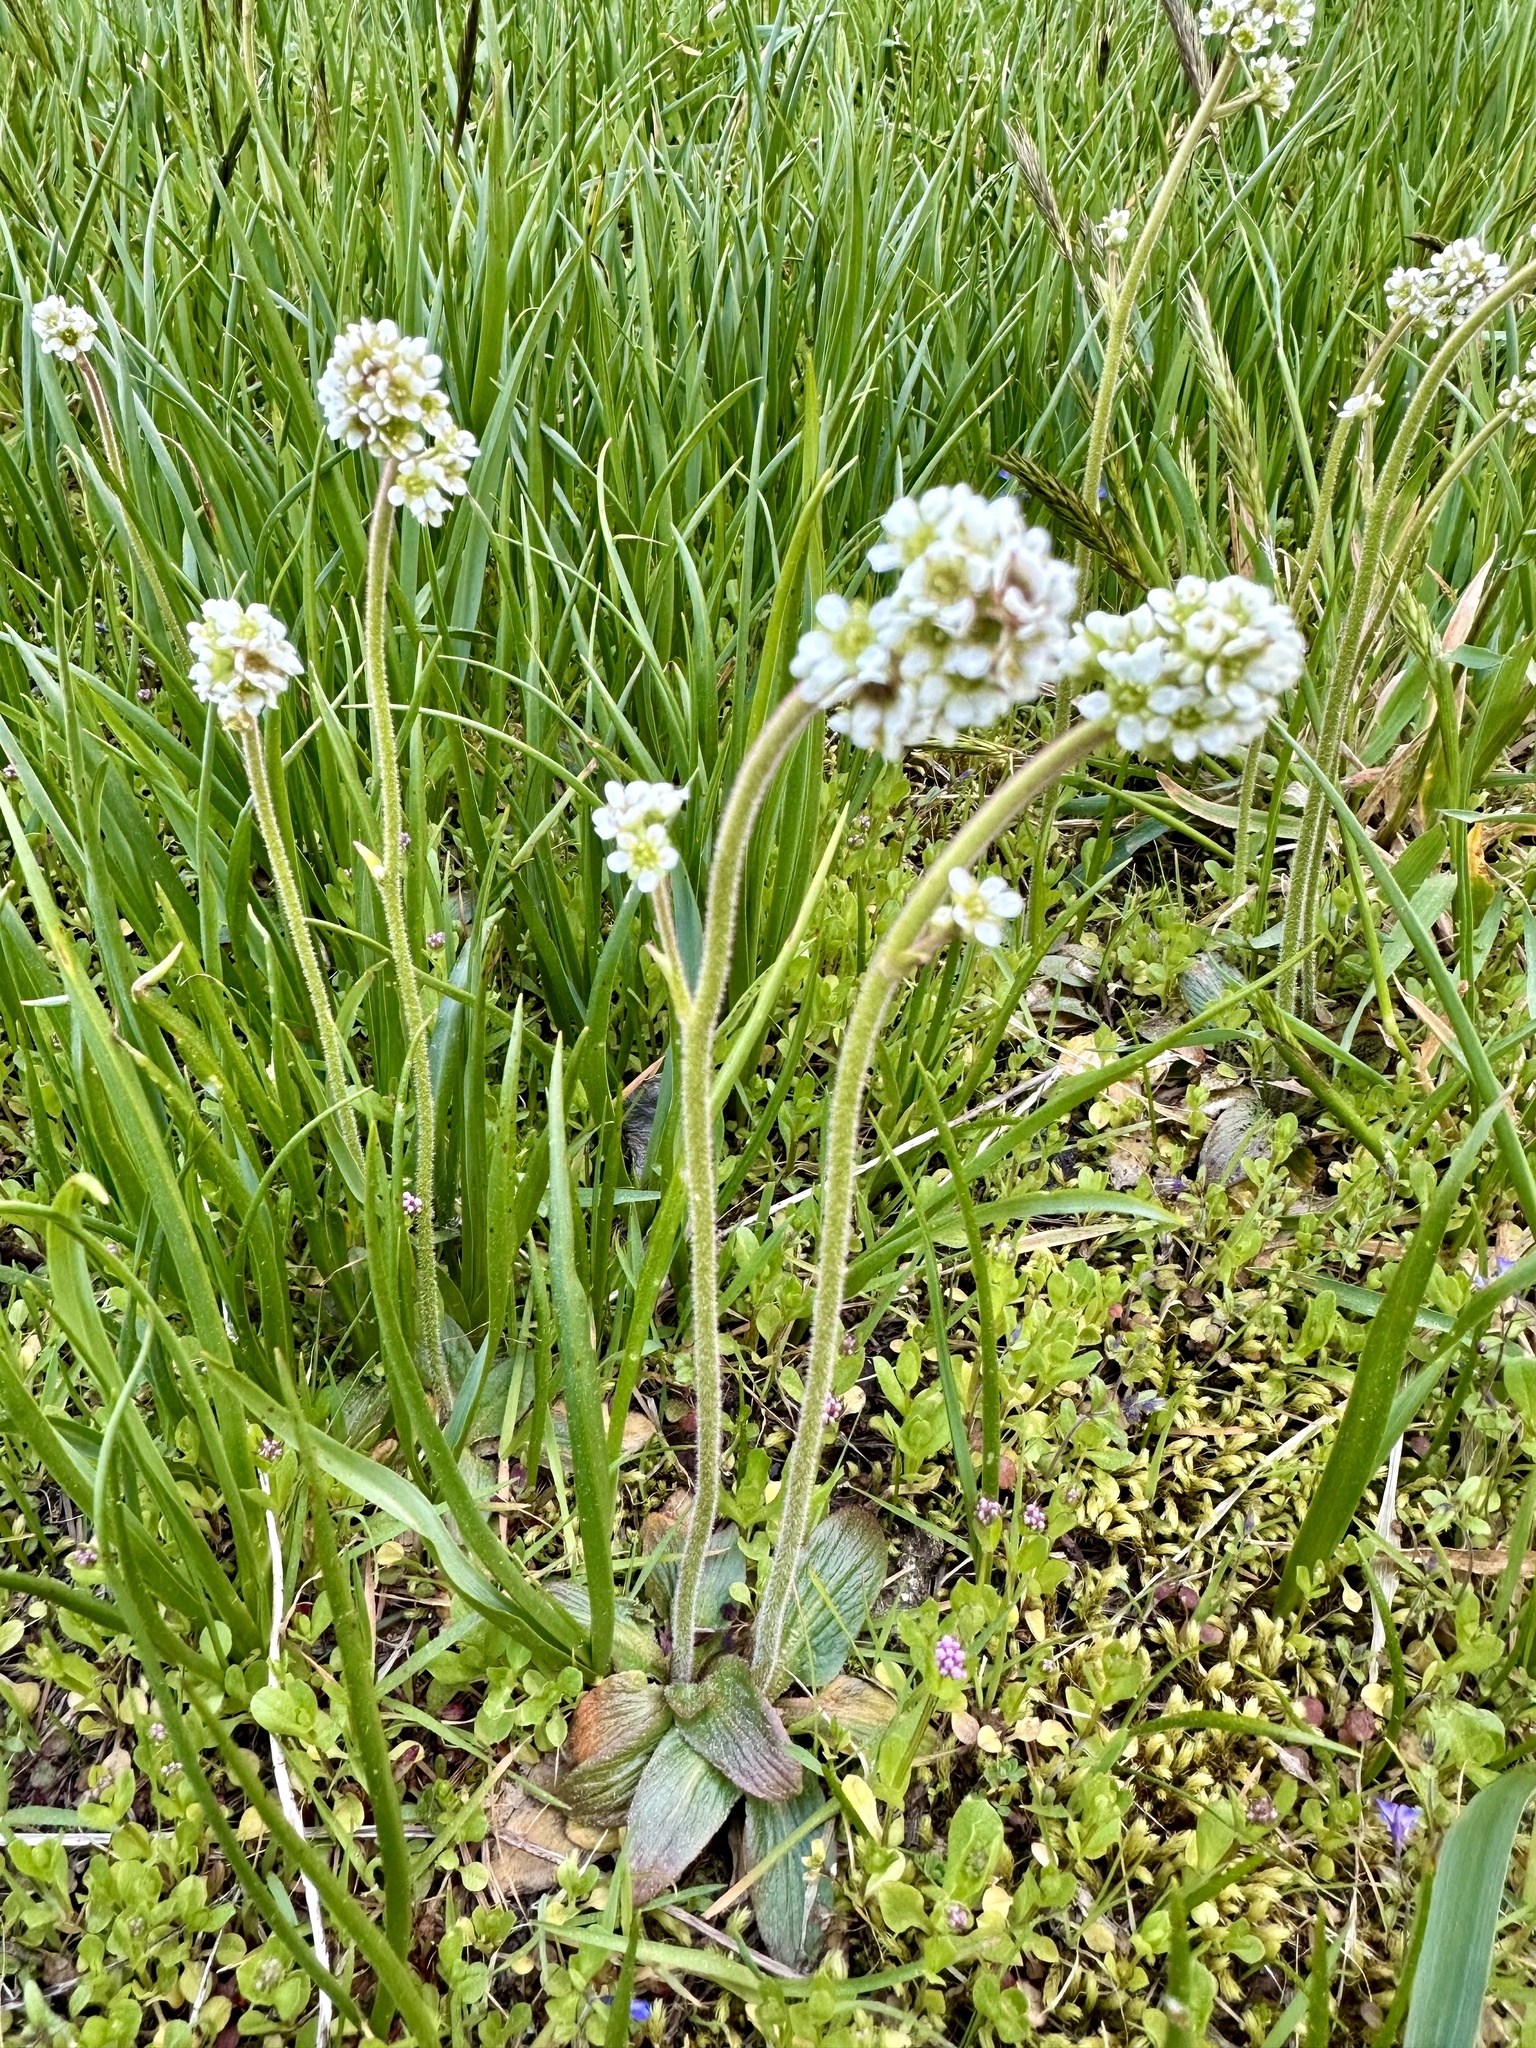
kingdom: Plantae
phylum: Tracheophyta
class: Magnoliopsida
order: Saxifragales
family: Saxifragaceae
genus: Micranthes
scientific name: Micranthes oregana
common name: Bog saxifrage
